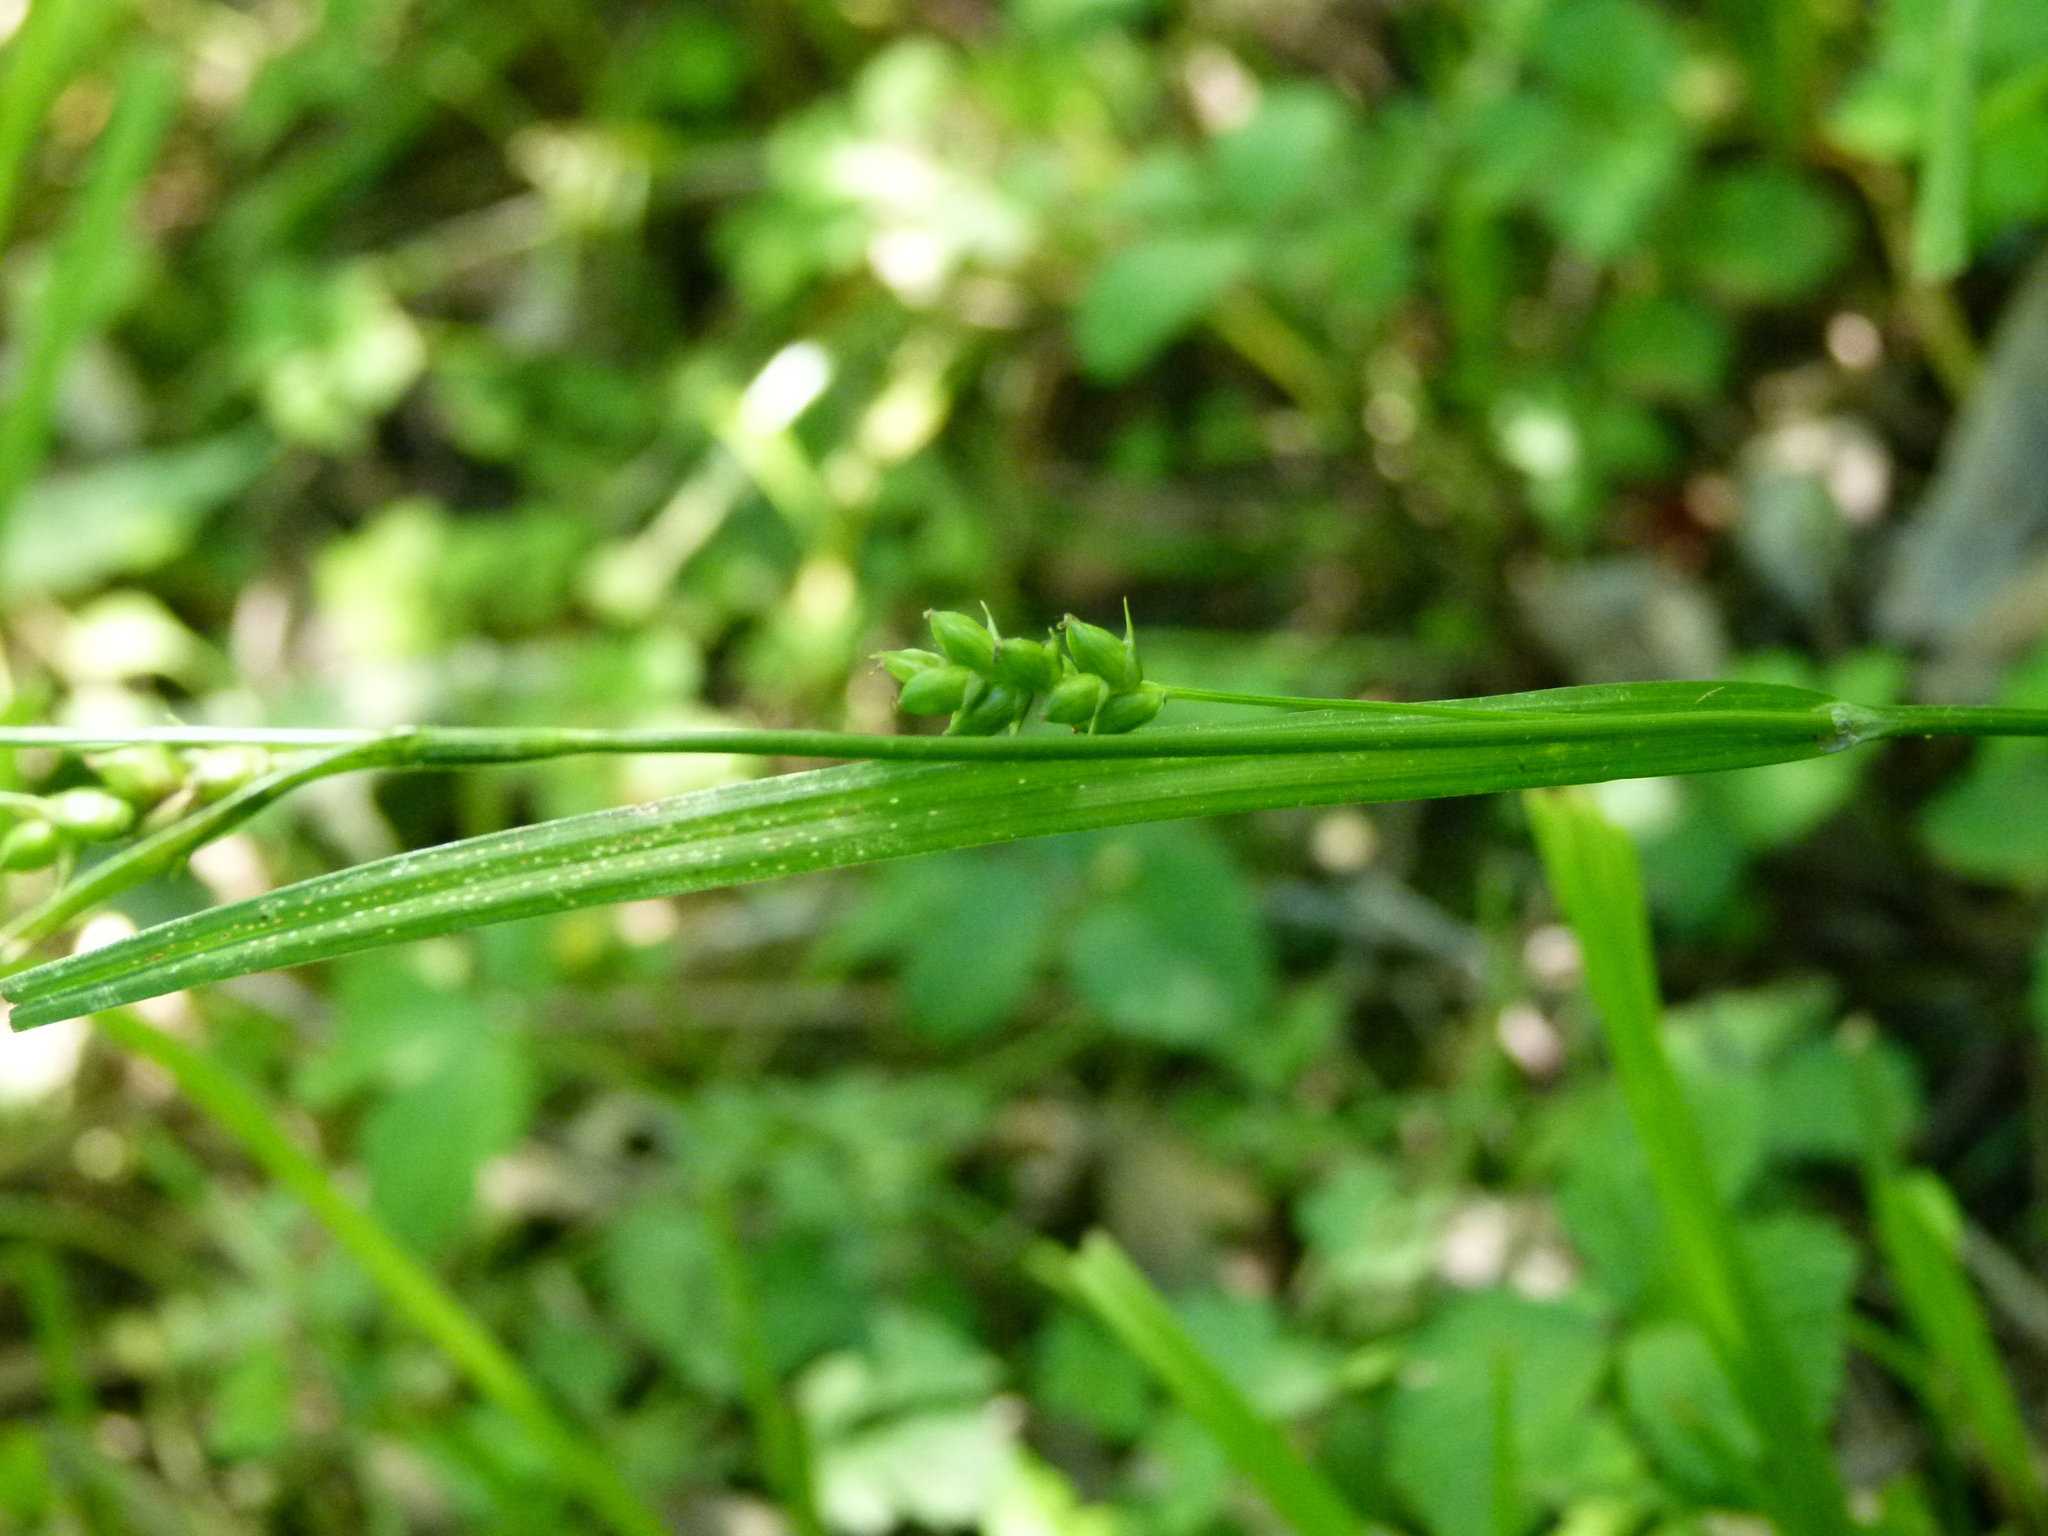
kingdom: Plantae
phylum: Tracheophyta
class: Liliopsida
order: Poales
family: Cyperaceae
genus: Carex
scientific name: Carex amphibola
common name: Amphibious sedge
